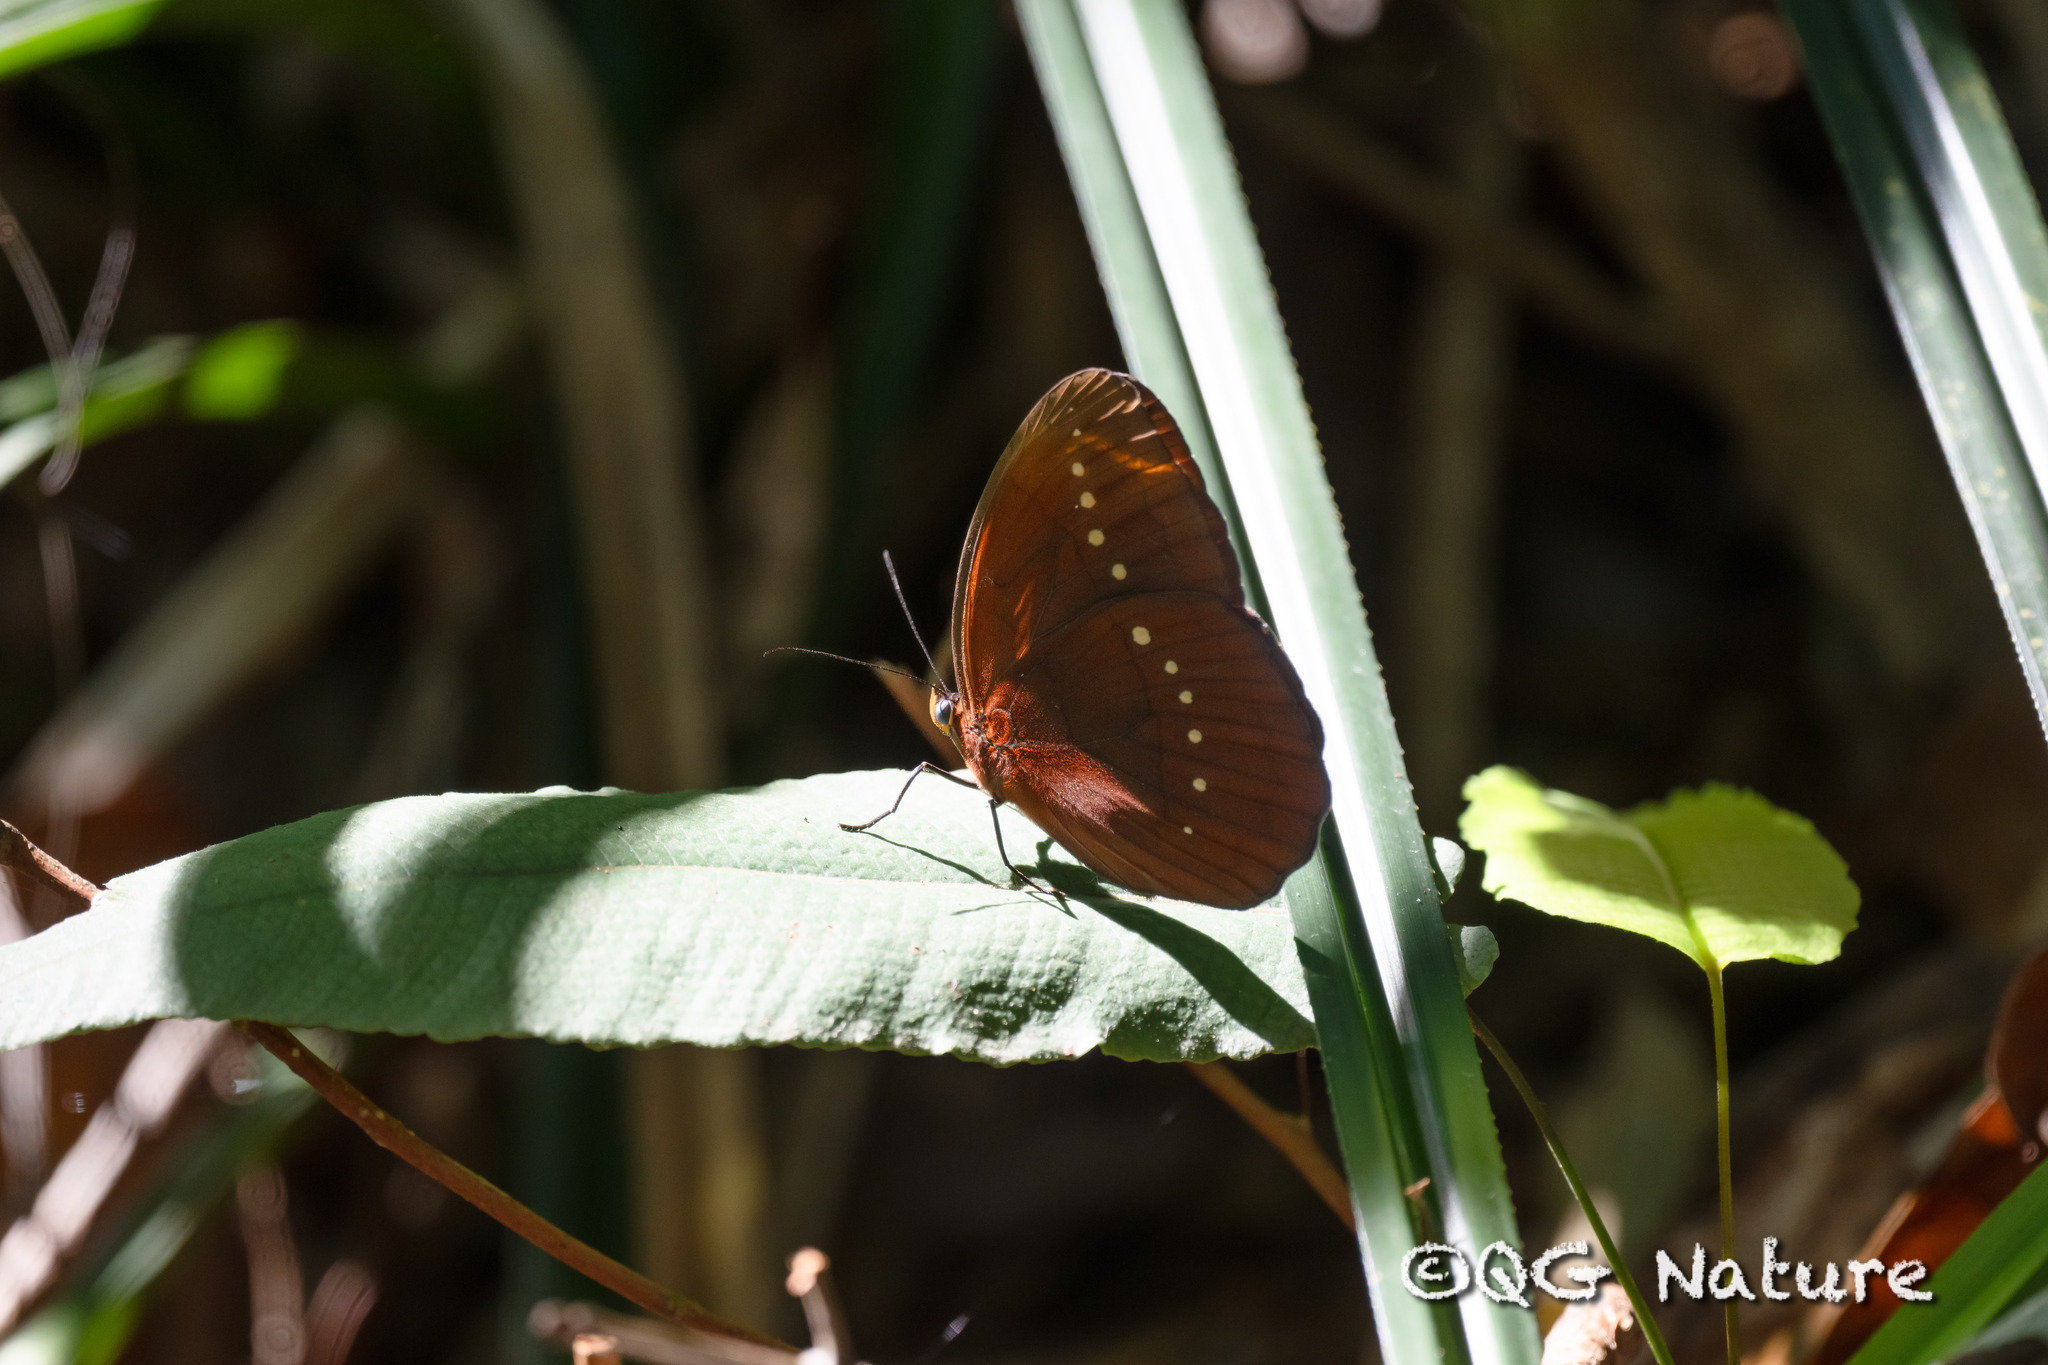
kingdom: Animalia
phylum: Arthropoda
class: Insecta
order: Lepidoptera
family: Nymphalidae
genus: Faunis
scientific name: Faunis eumeus
